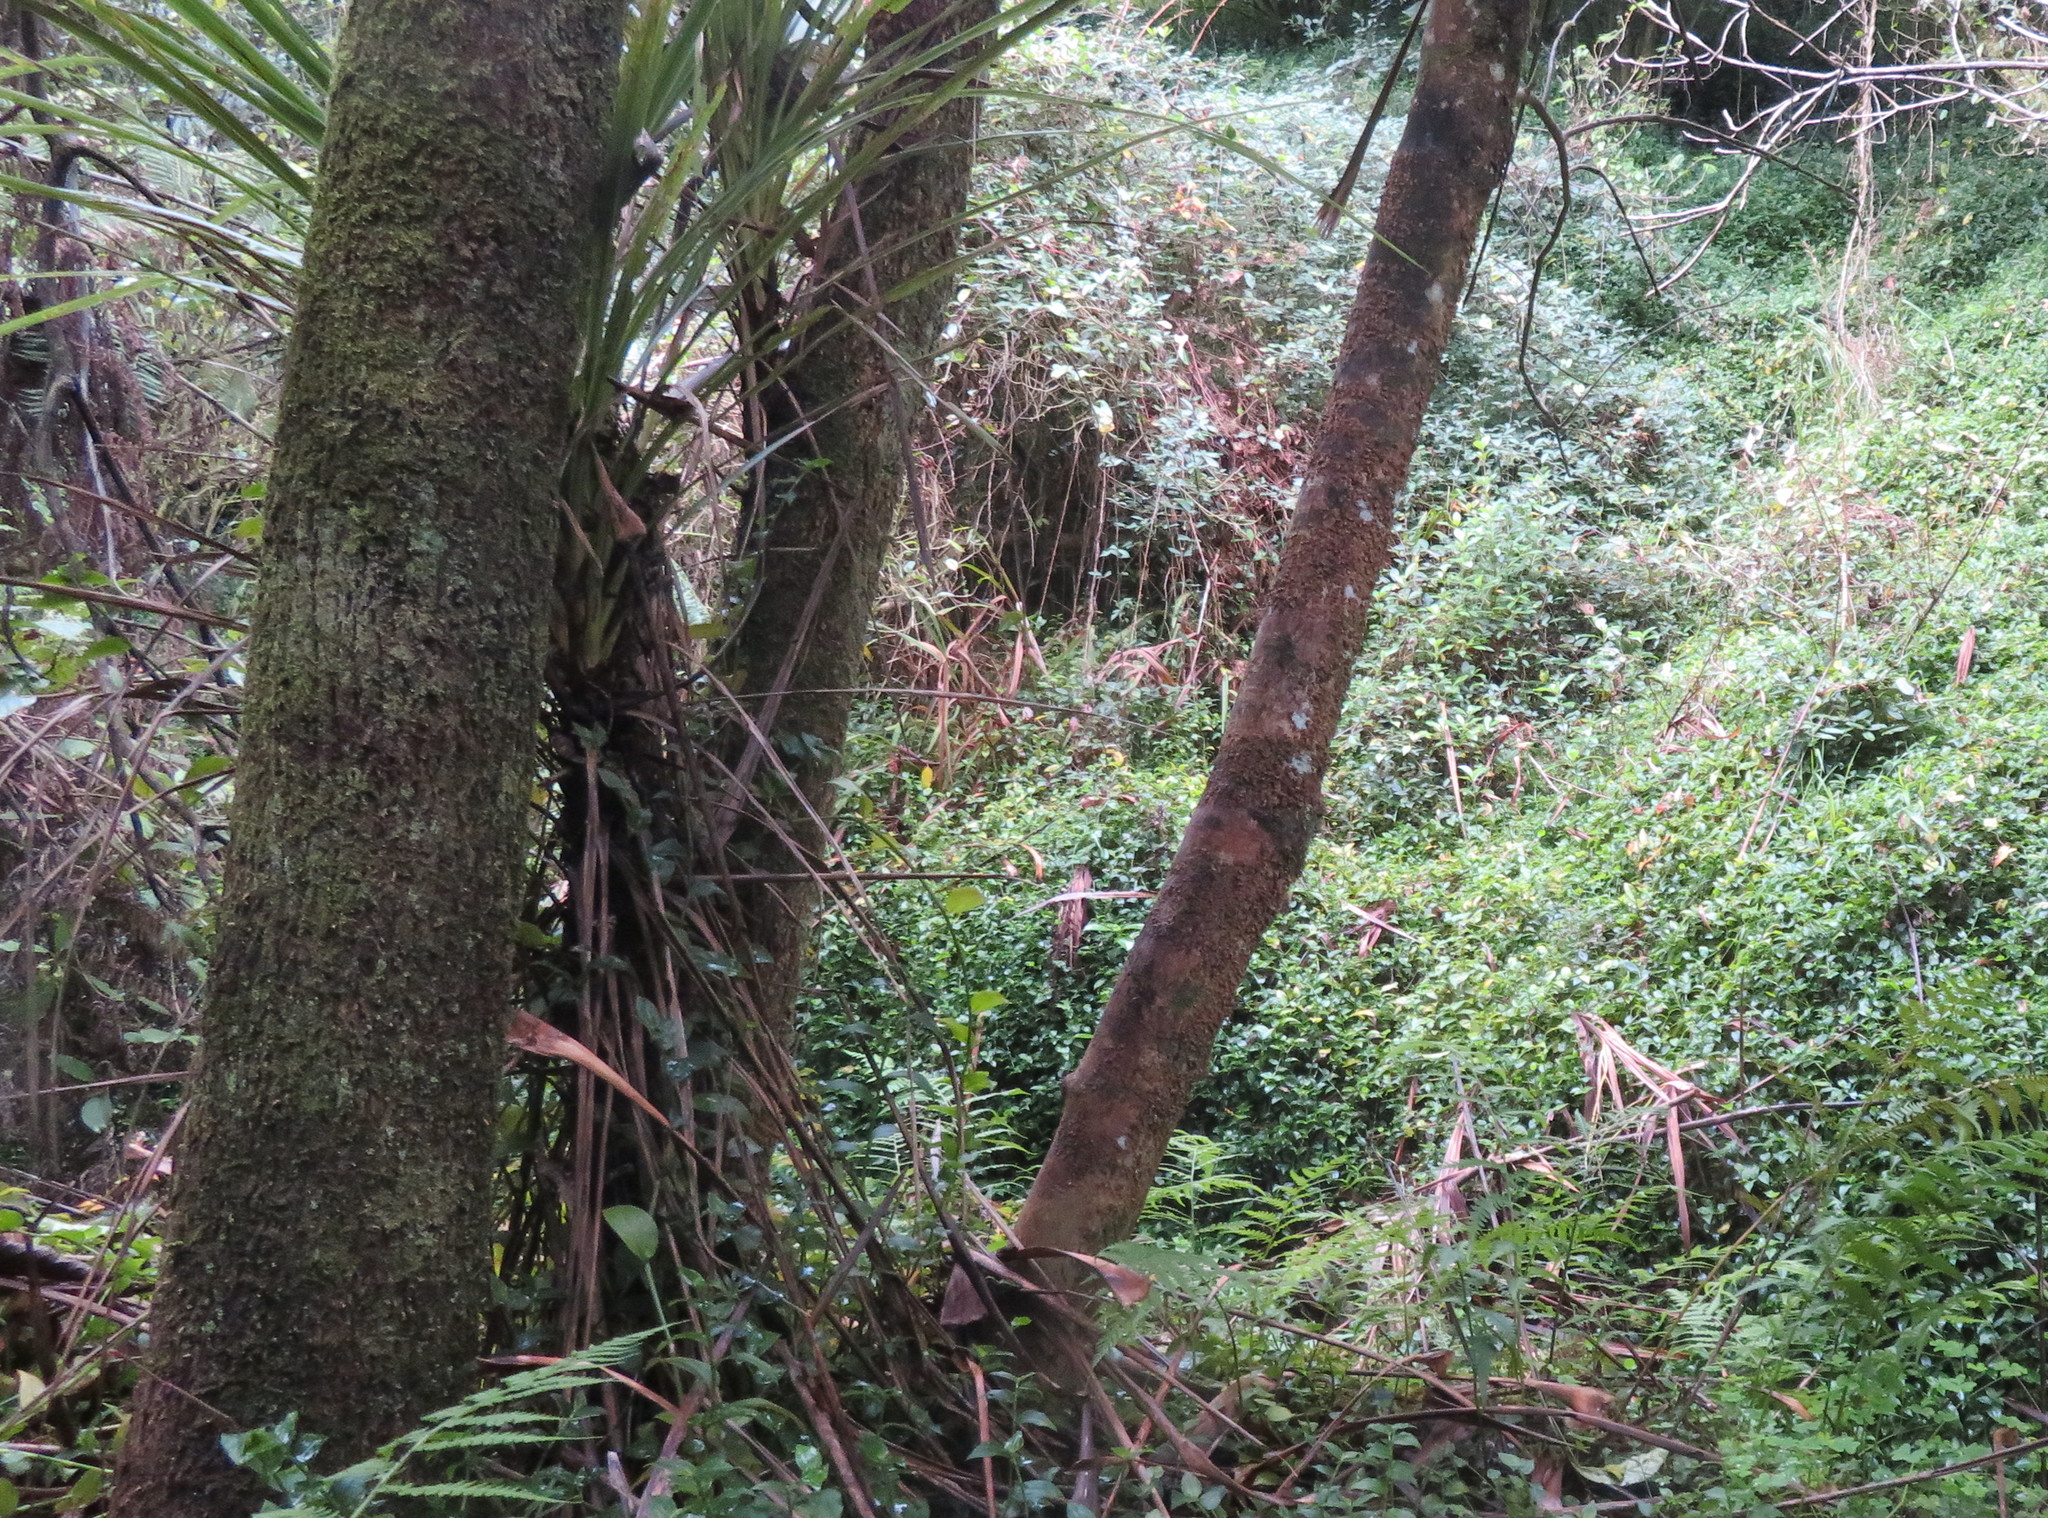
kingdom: Plantae
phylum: Tracheophyta
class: Liliopsida
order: Commelinales
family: Commelinaceae
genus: Tradescantia
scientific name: Tradescantia fluminensis
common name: Wandering-jew
